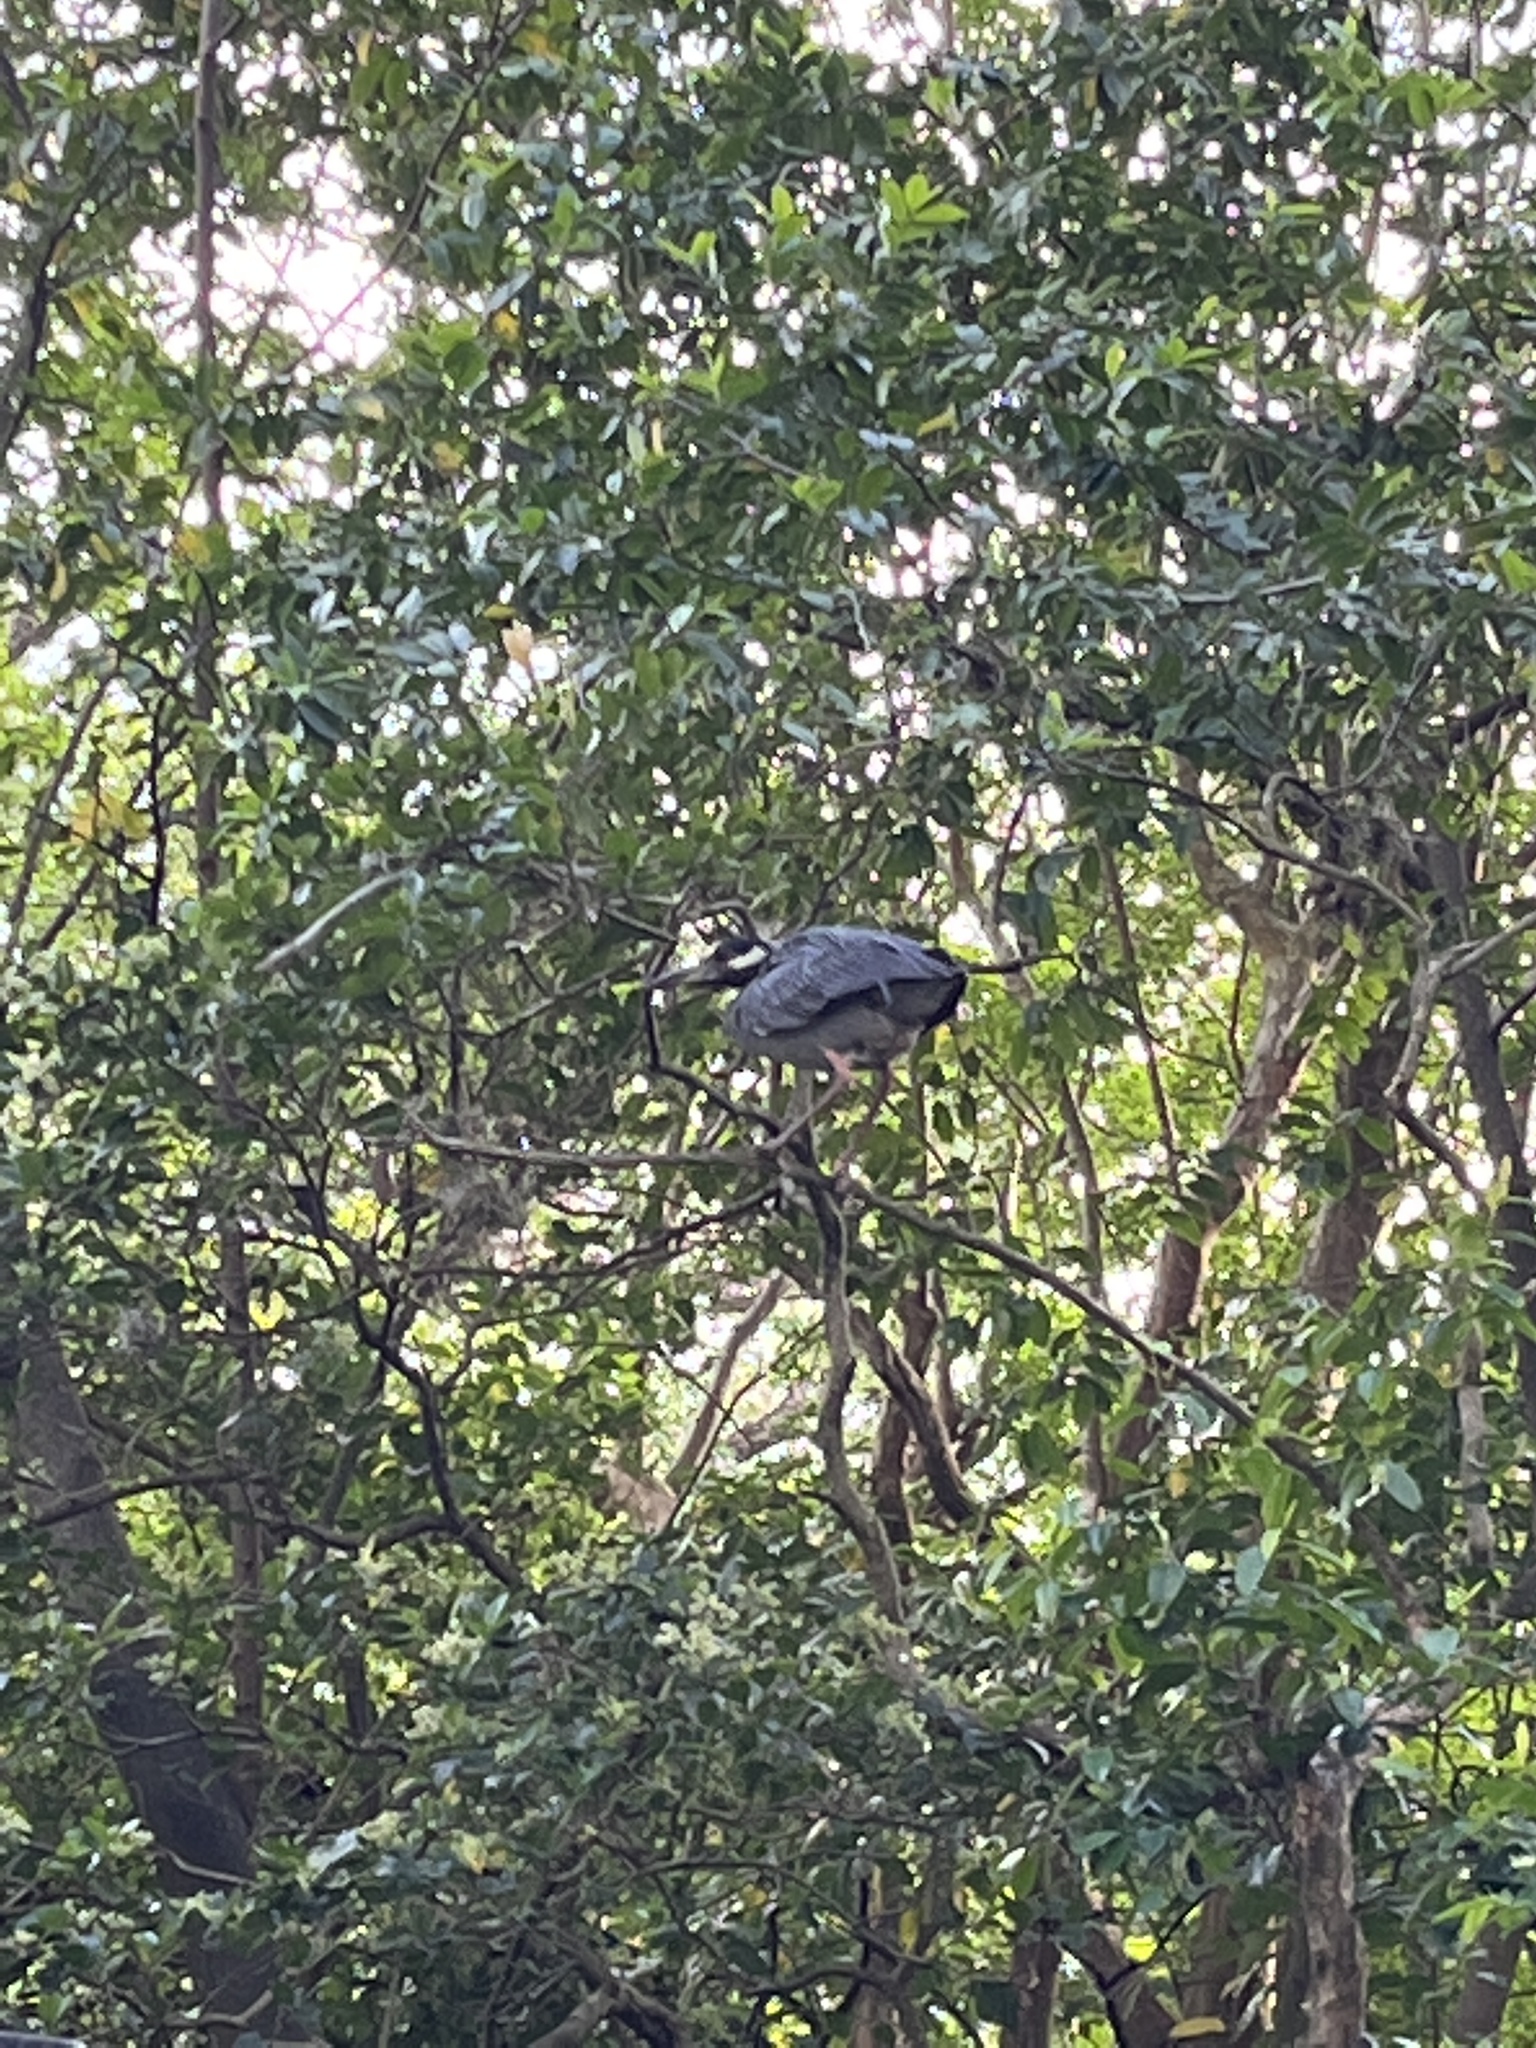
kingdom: Animalia
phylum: Chordata
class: Aves
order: Pelecaniformes
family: Ardeidae
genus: Nyctanassa
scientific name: Nyctanassa violacea
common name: Yellow-crowned night heron
